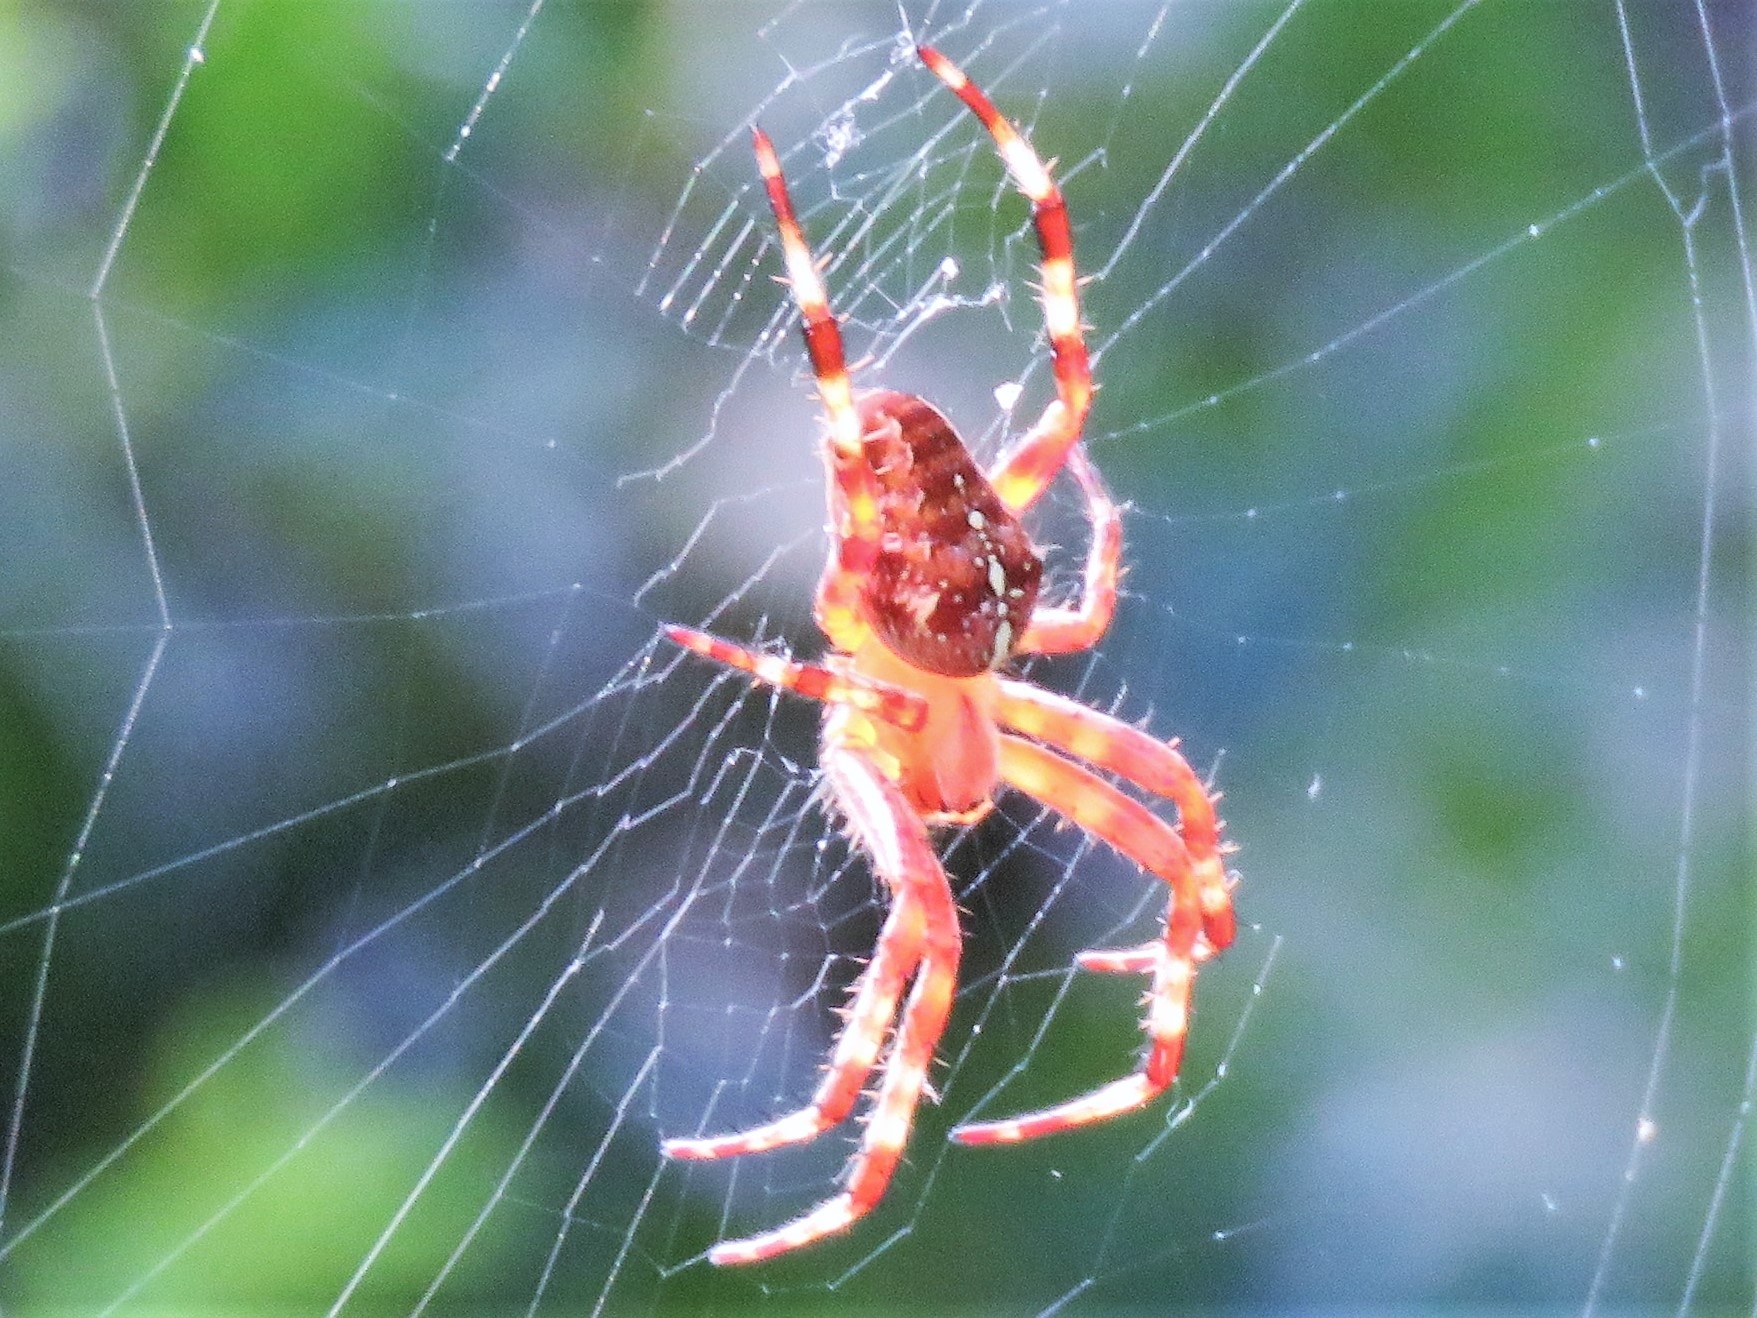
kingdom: Animalia
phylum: Arthropoda
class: Arachnida
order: Araneae
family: Araneidae
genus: Araneus
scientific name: Araneus diadematus
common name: Cross orbweaver
